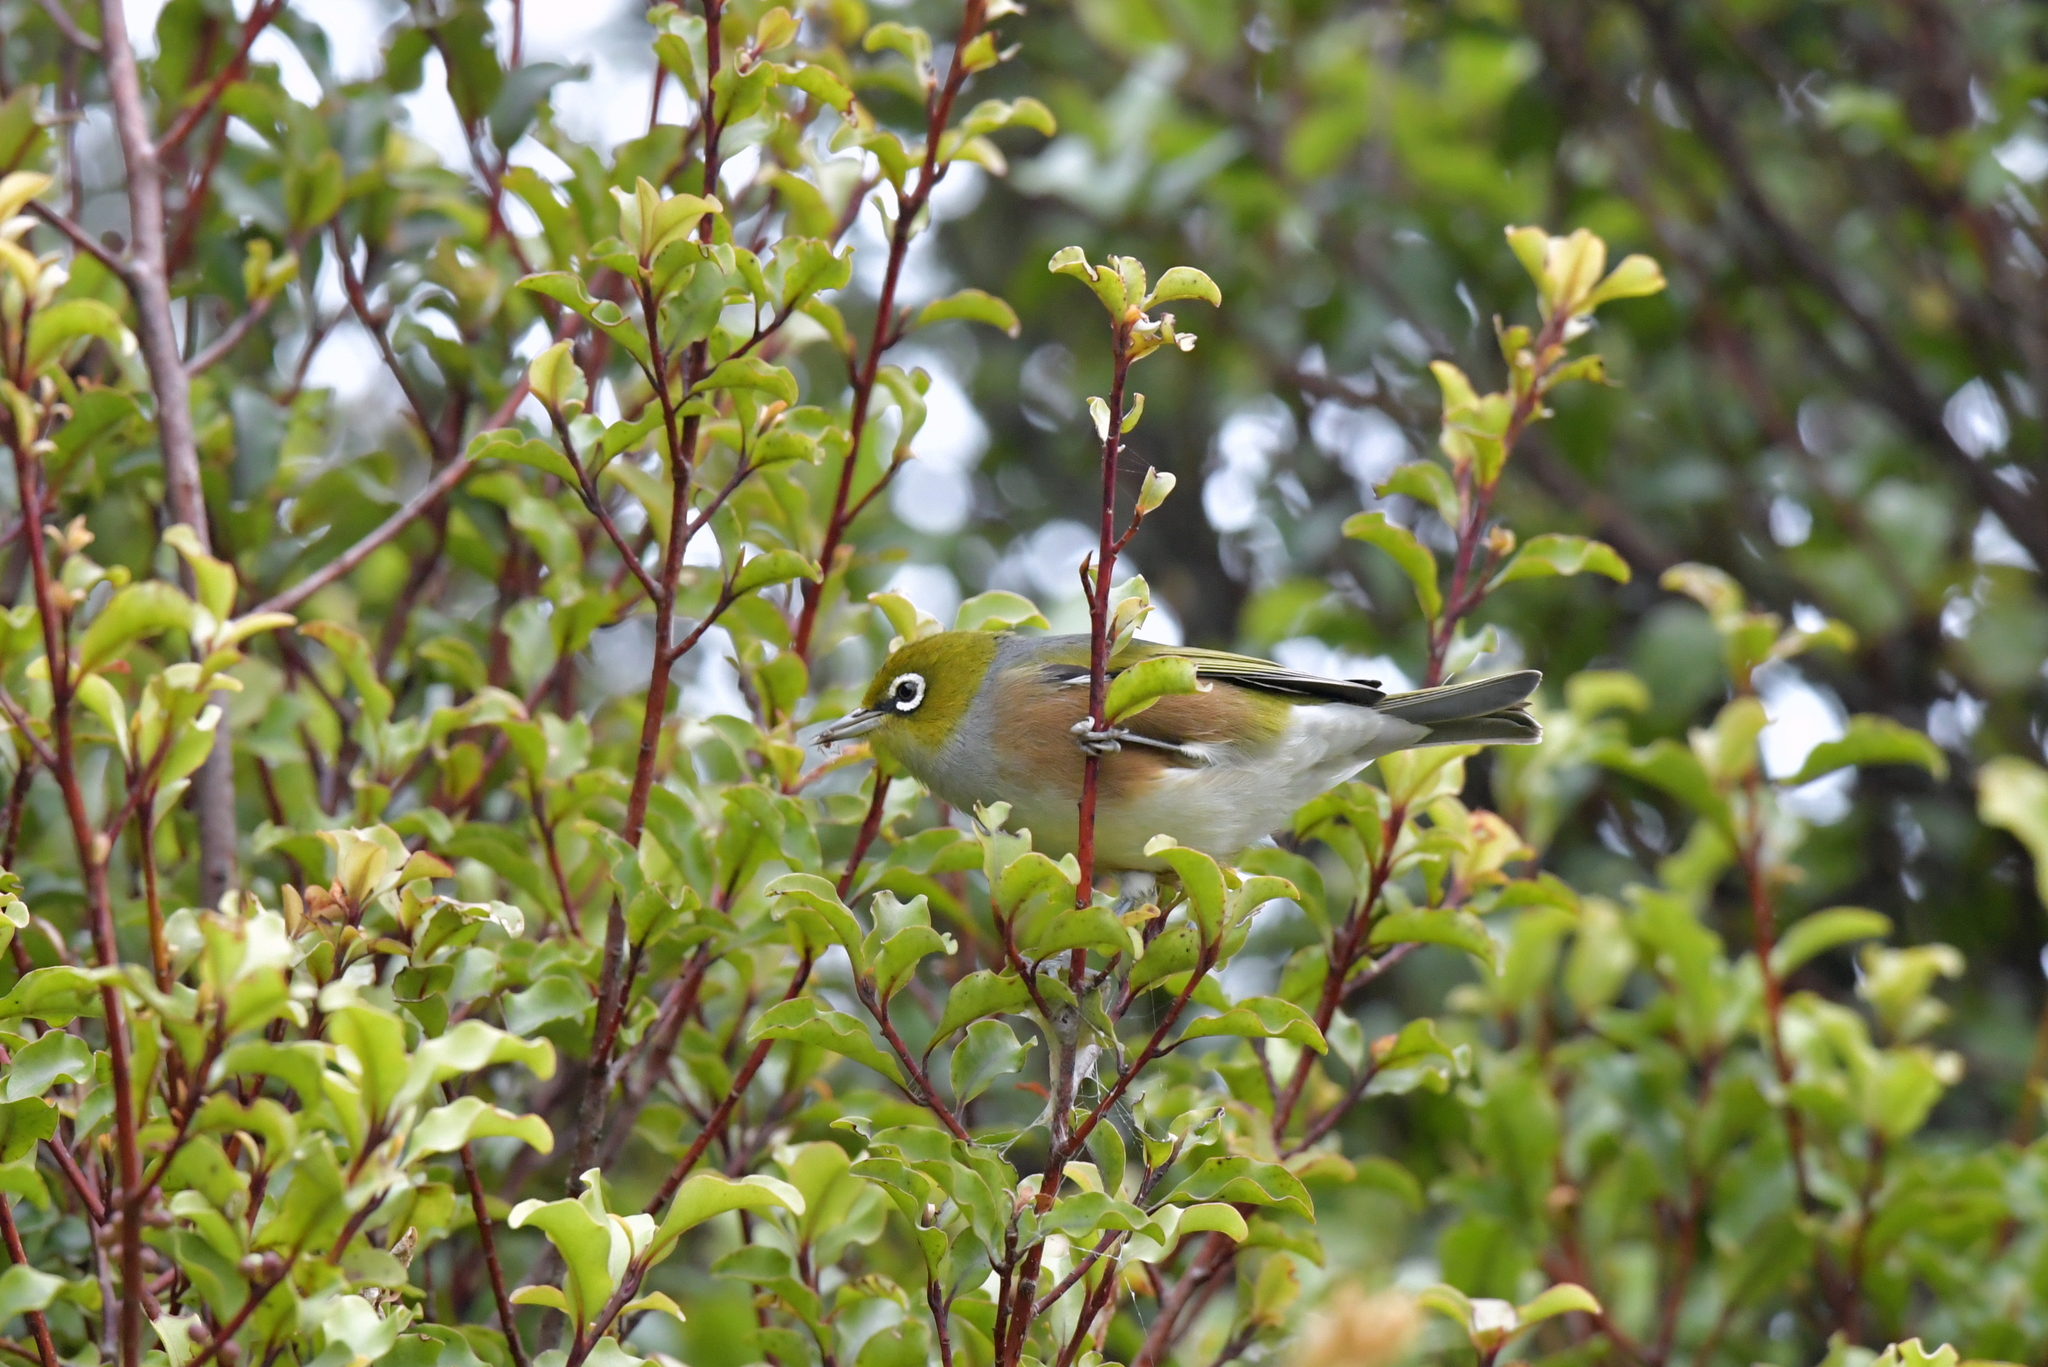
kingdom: Animalia
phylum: Chordata
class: Aves
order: Passeriformes
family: Zosteropidae
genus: Zosterops
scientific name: Zosterops lateralis
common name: Silvereye
